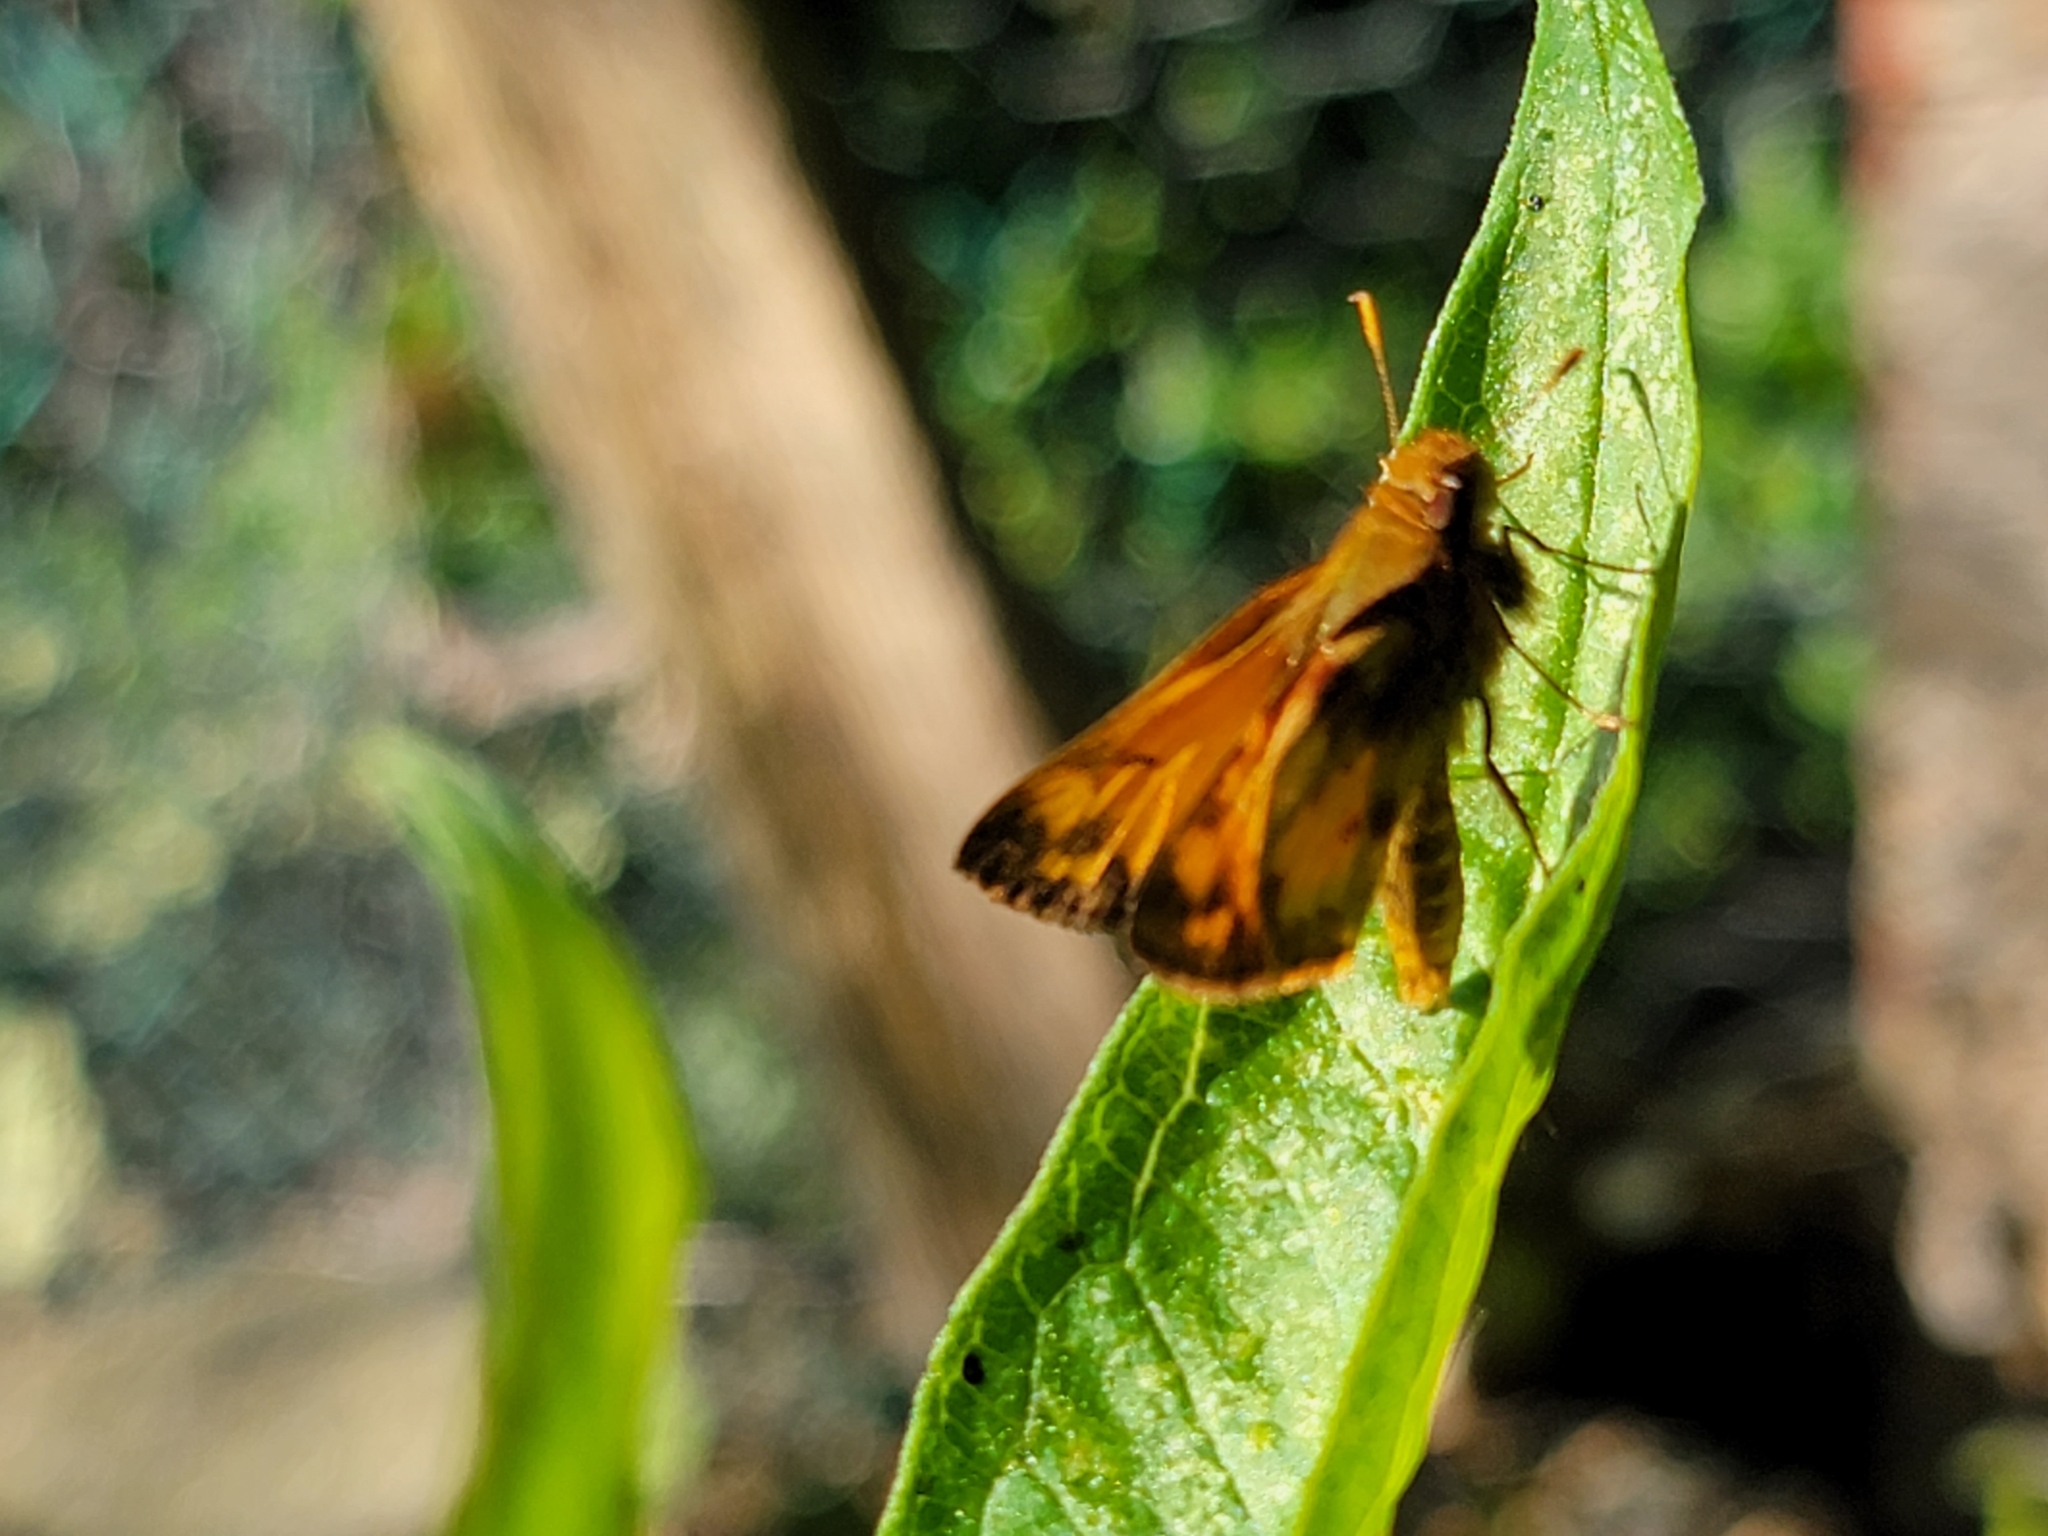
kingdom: Animalia
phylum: Arthropoda
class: Insecta
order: Lepidoptera
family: Hesperiidae
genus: Lon
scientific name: Lon zabulon
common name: Zabulon skipper
